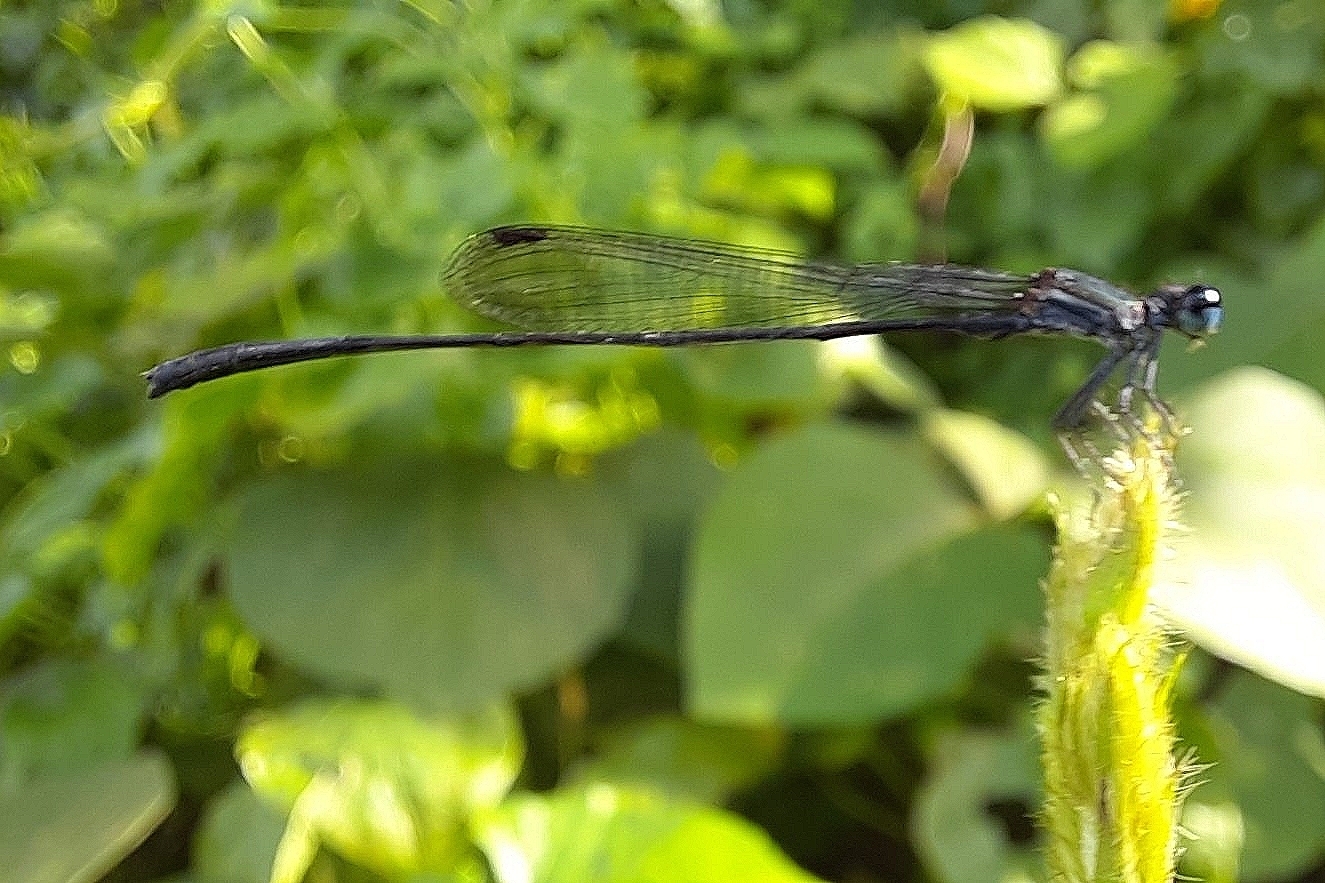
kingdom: Animalia
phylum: Arthropoda
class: Insecta
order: Odonata
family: Platycnemididae
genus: Elattoneura
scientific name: Elattoneura tetrica
